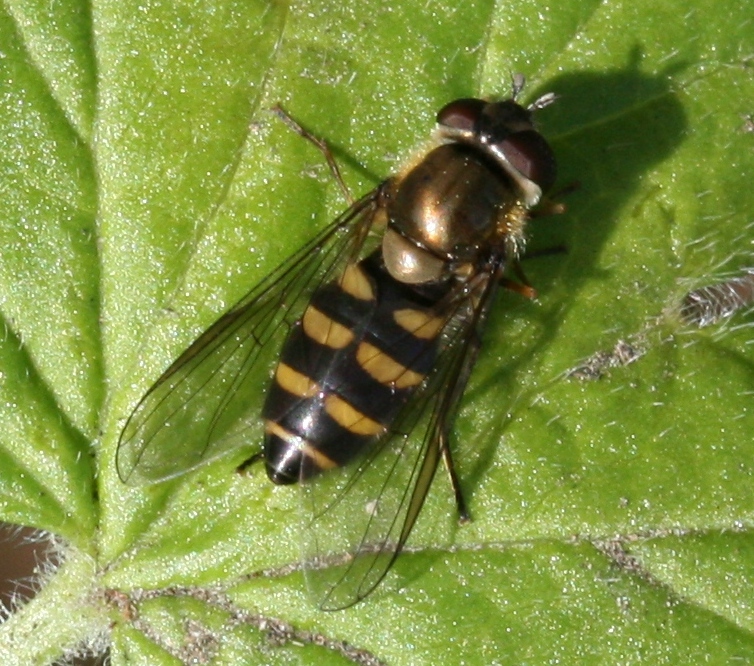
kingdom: Animalia
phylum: Arthropoda
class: Insecta
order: Diptera
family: Syrphidae
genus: Parasyrphus
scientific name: Parasyrphus punctulatus
